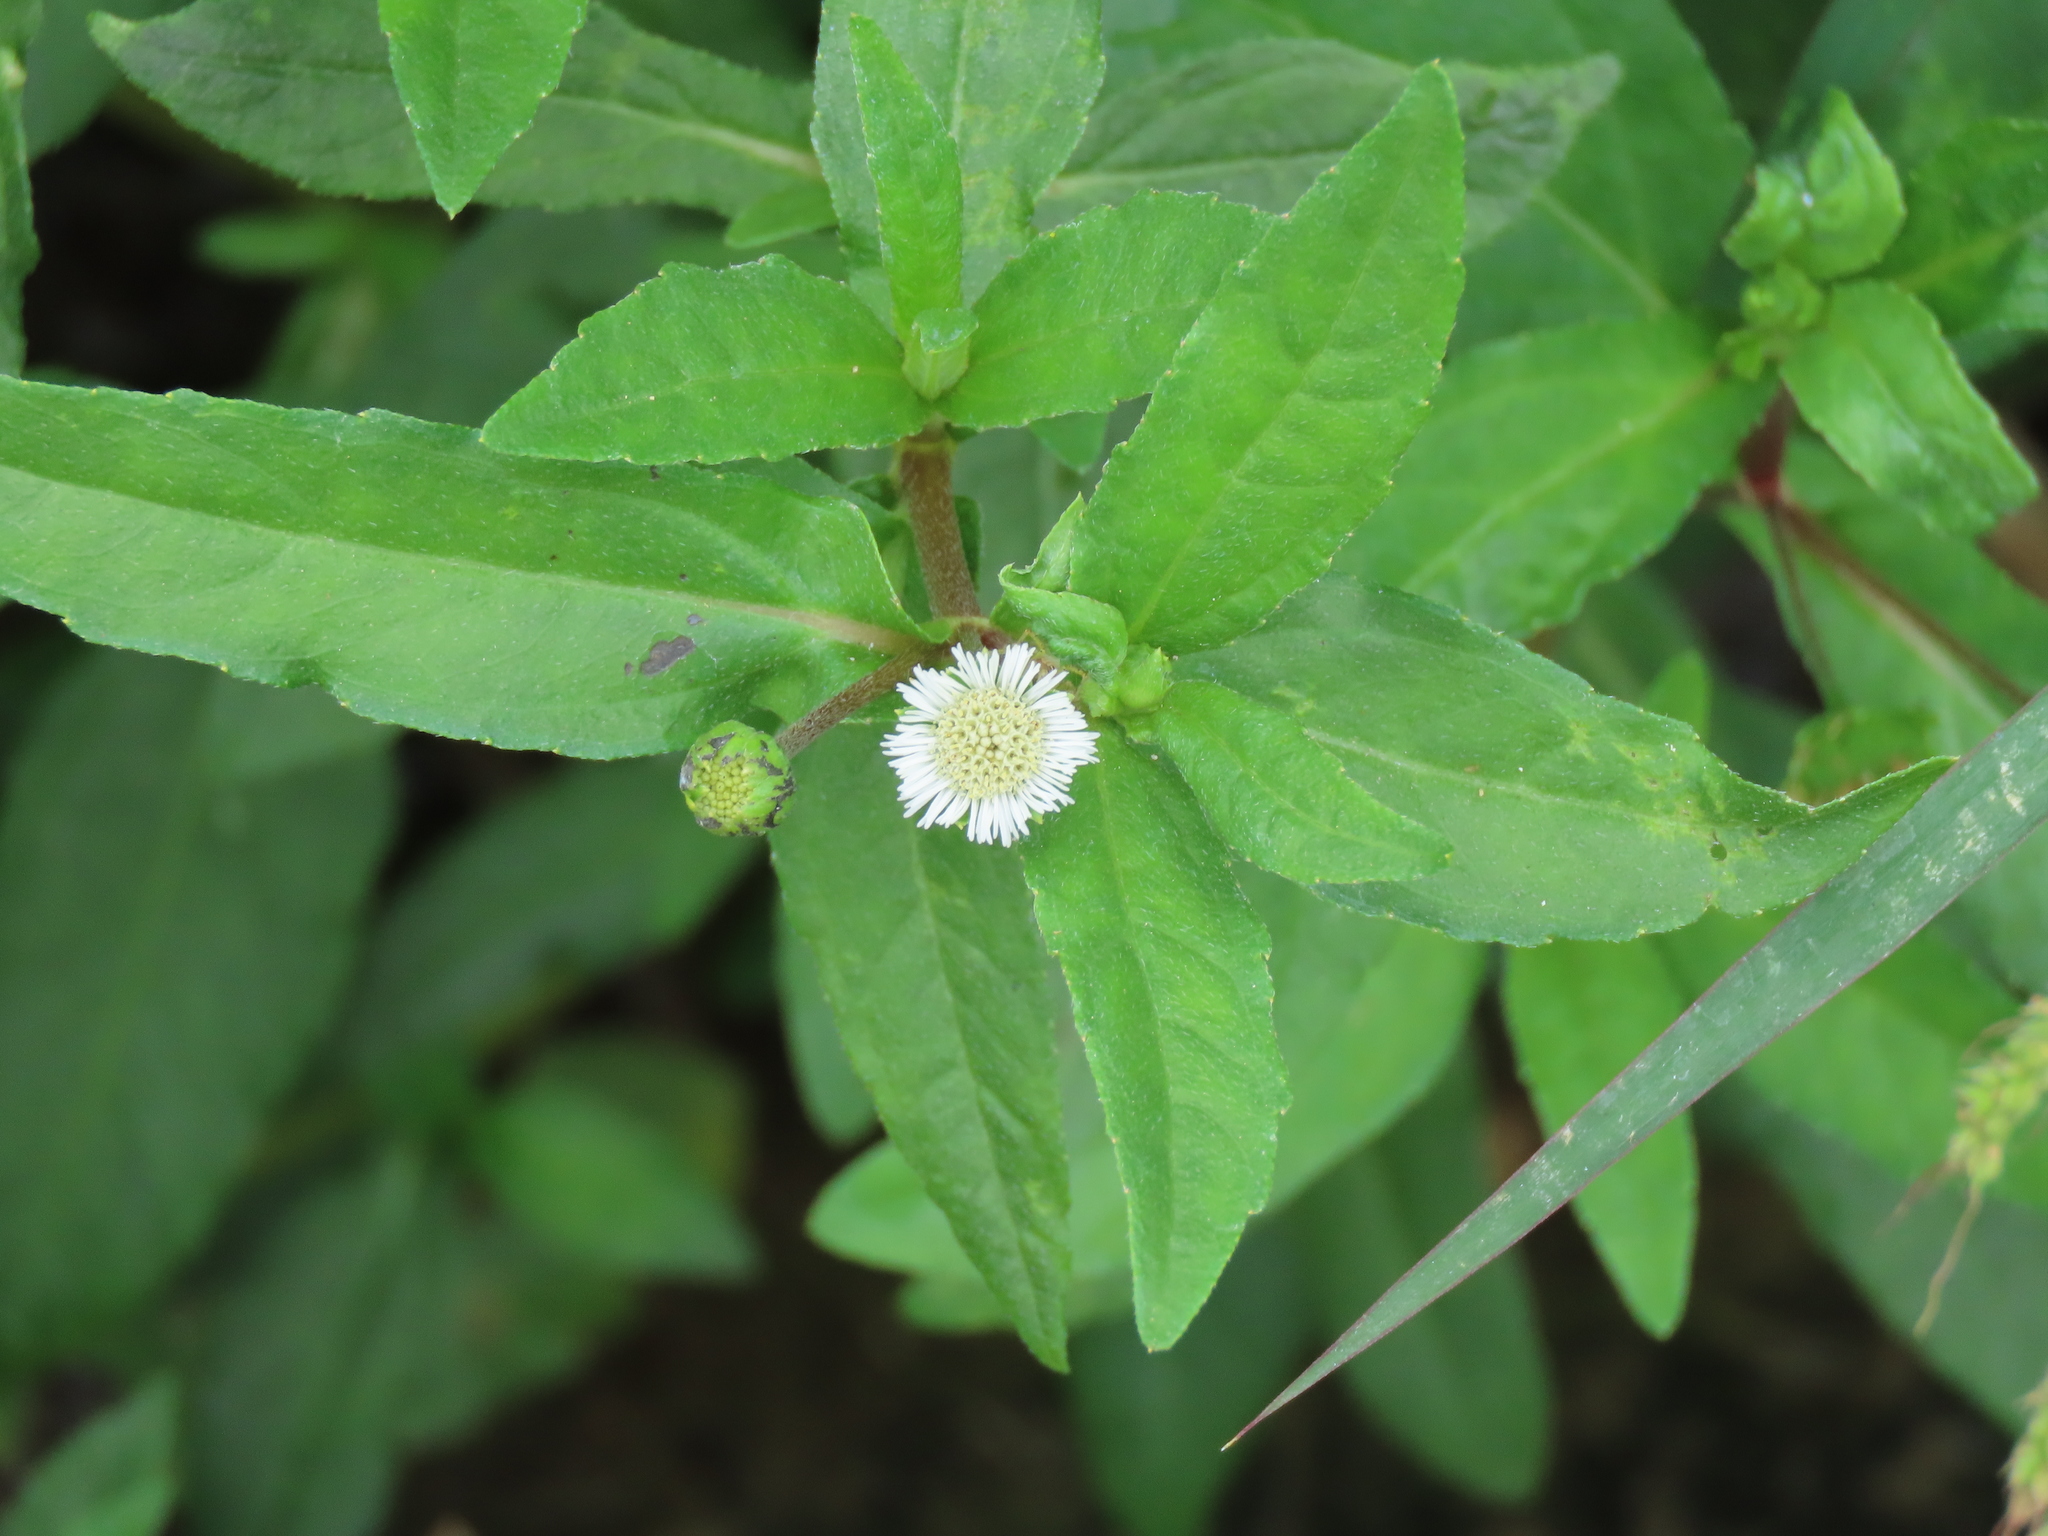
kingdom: Plantae
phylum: Tracheophyta
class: Magnoliopsida
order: Asterales
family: Asteraceae
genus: Eclipta
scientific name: Eclipta prostrata
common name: False daisy
